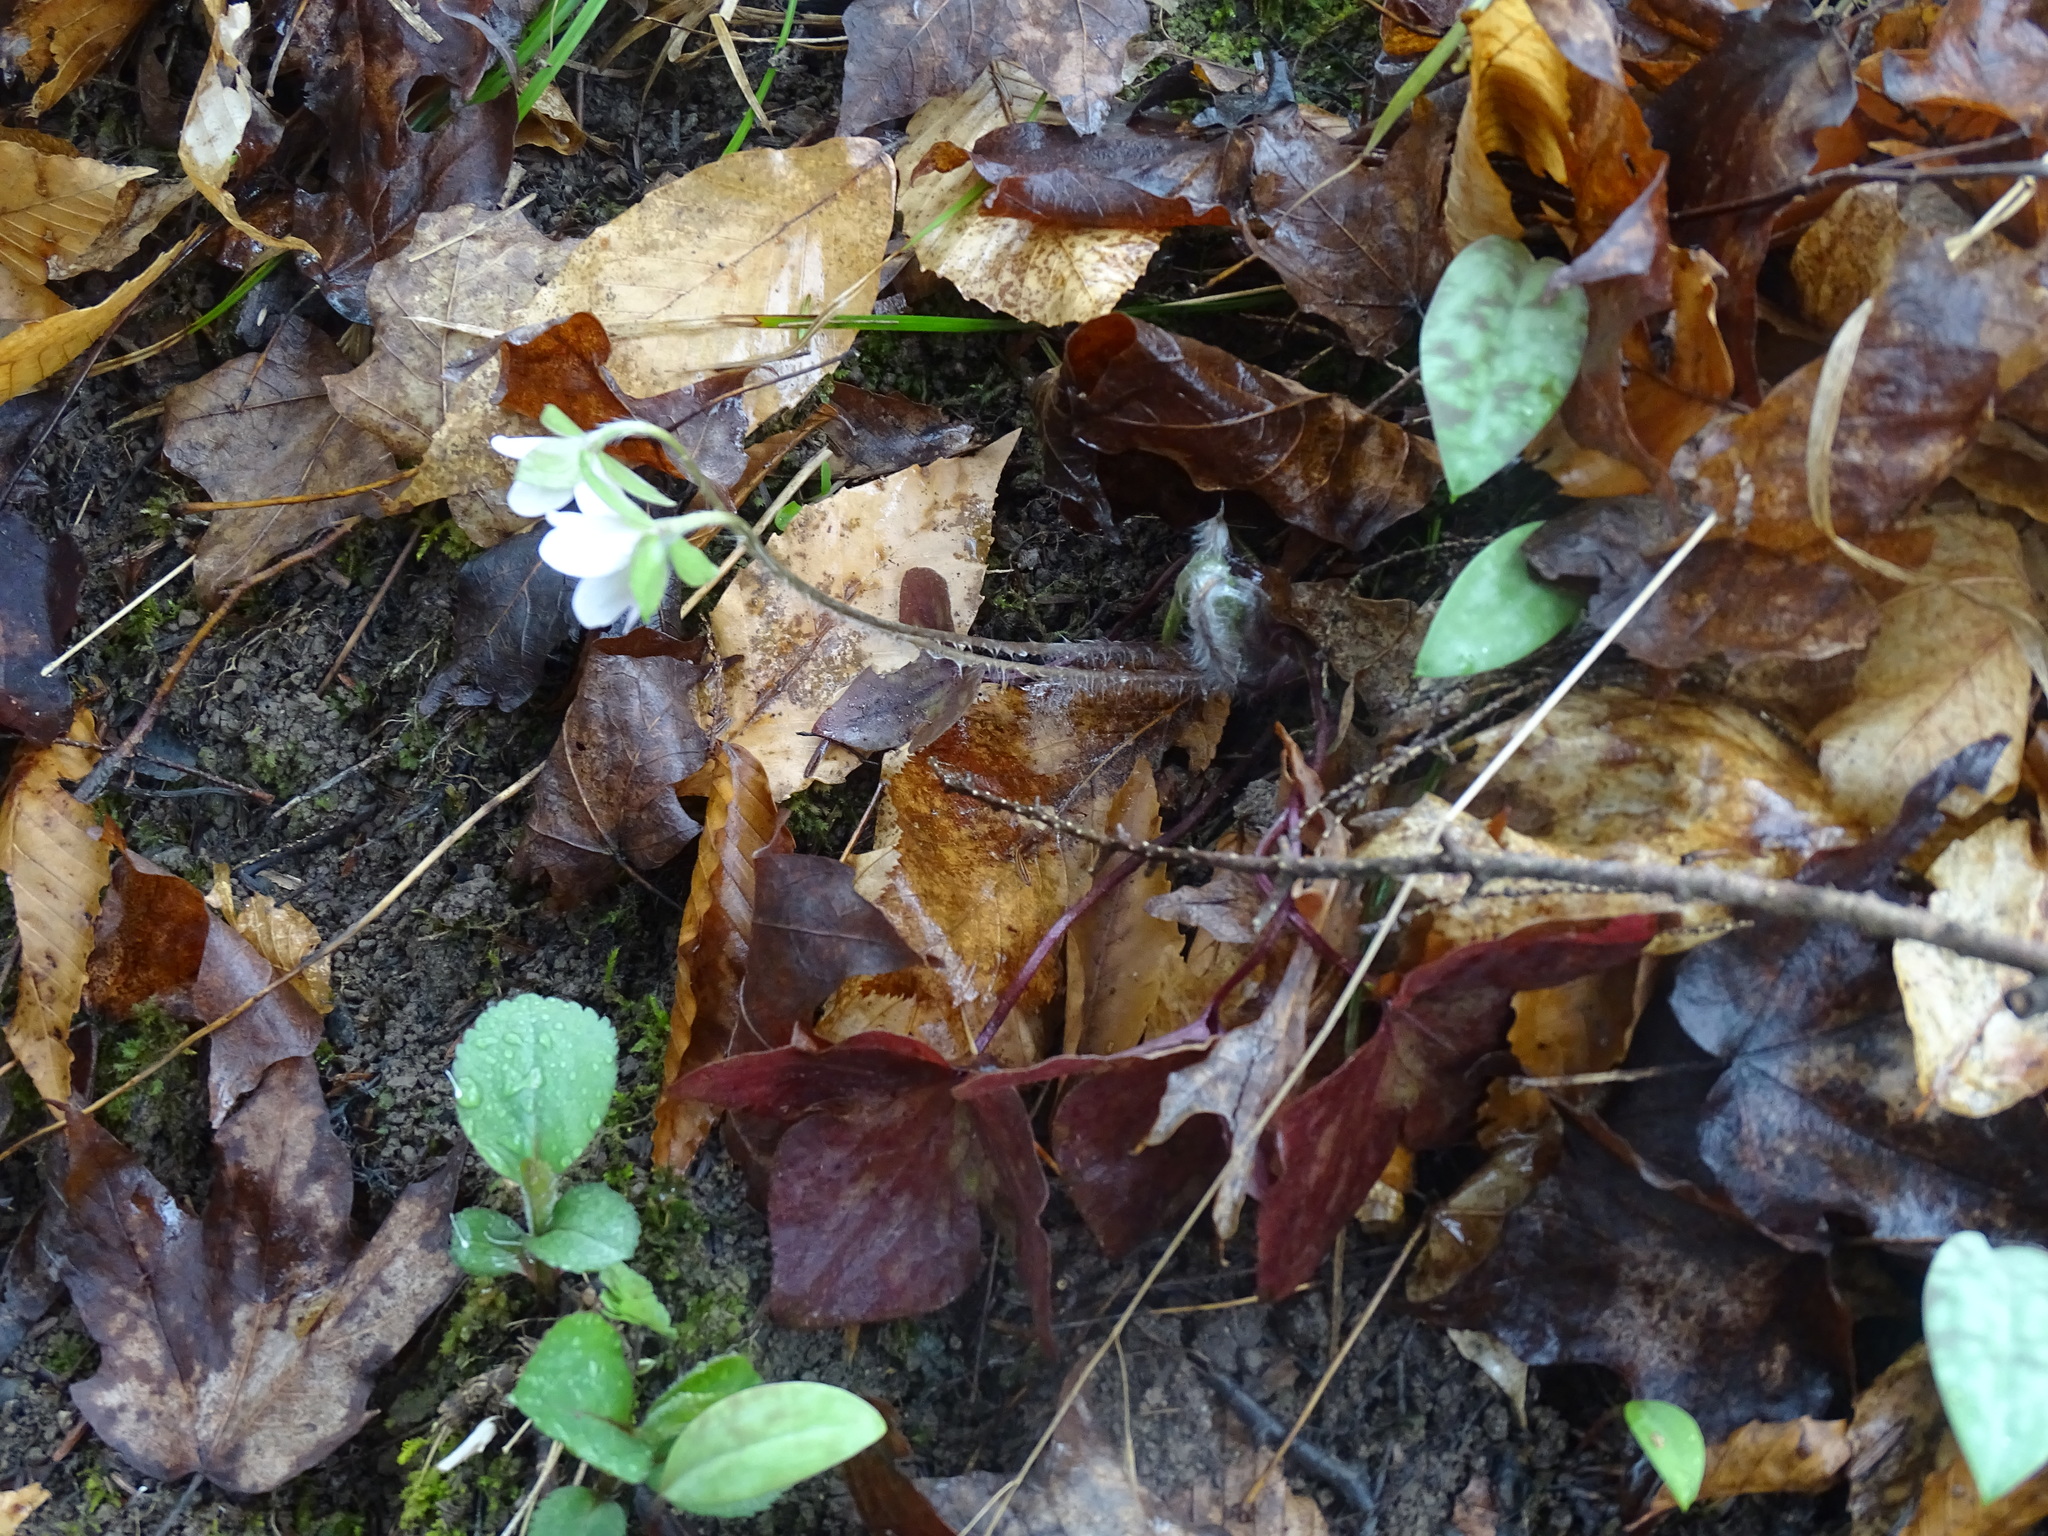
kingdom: Plantae
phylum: Tracheophyta
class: Magnoliopsida
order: Ranunculales
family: Ranunculaceae
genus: Hepatica
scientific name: Hepatica acutiloba
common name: Sharp-lobed hepatica
